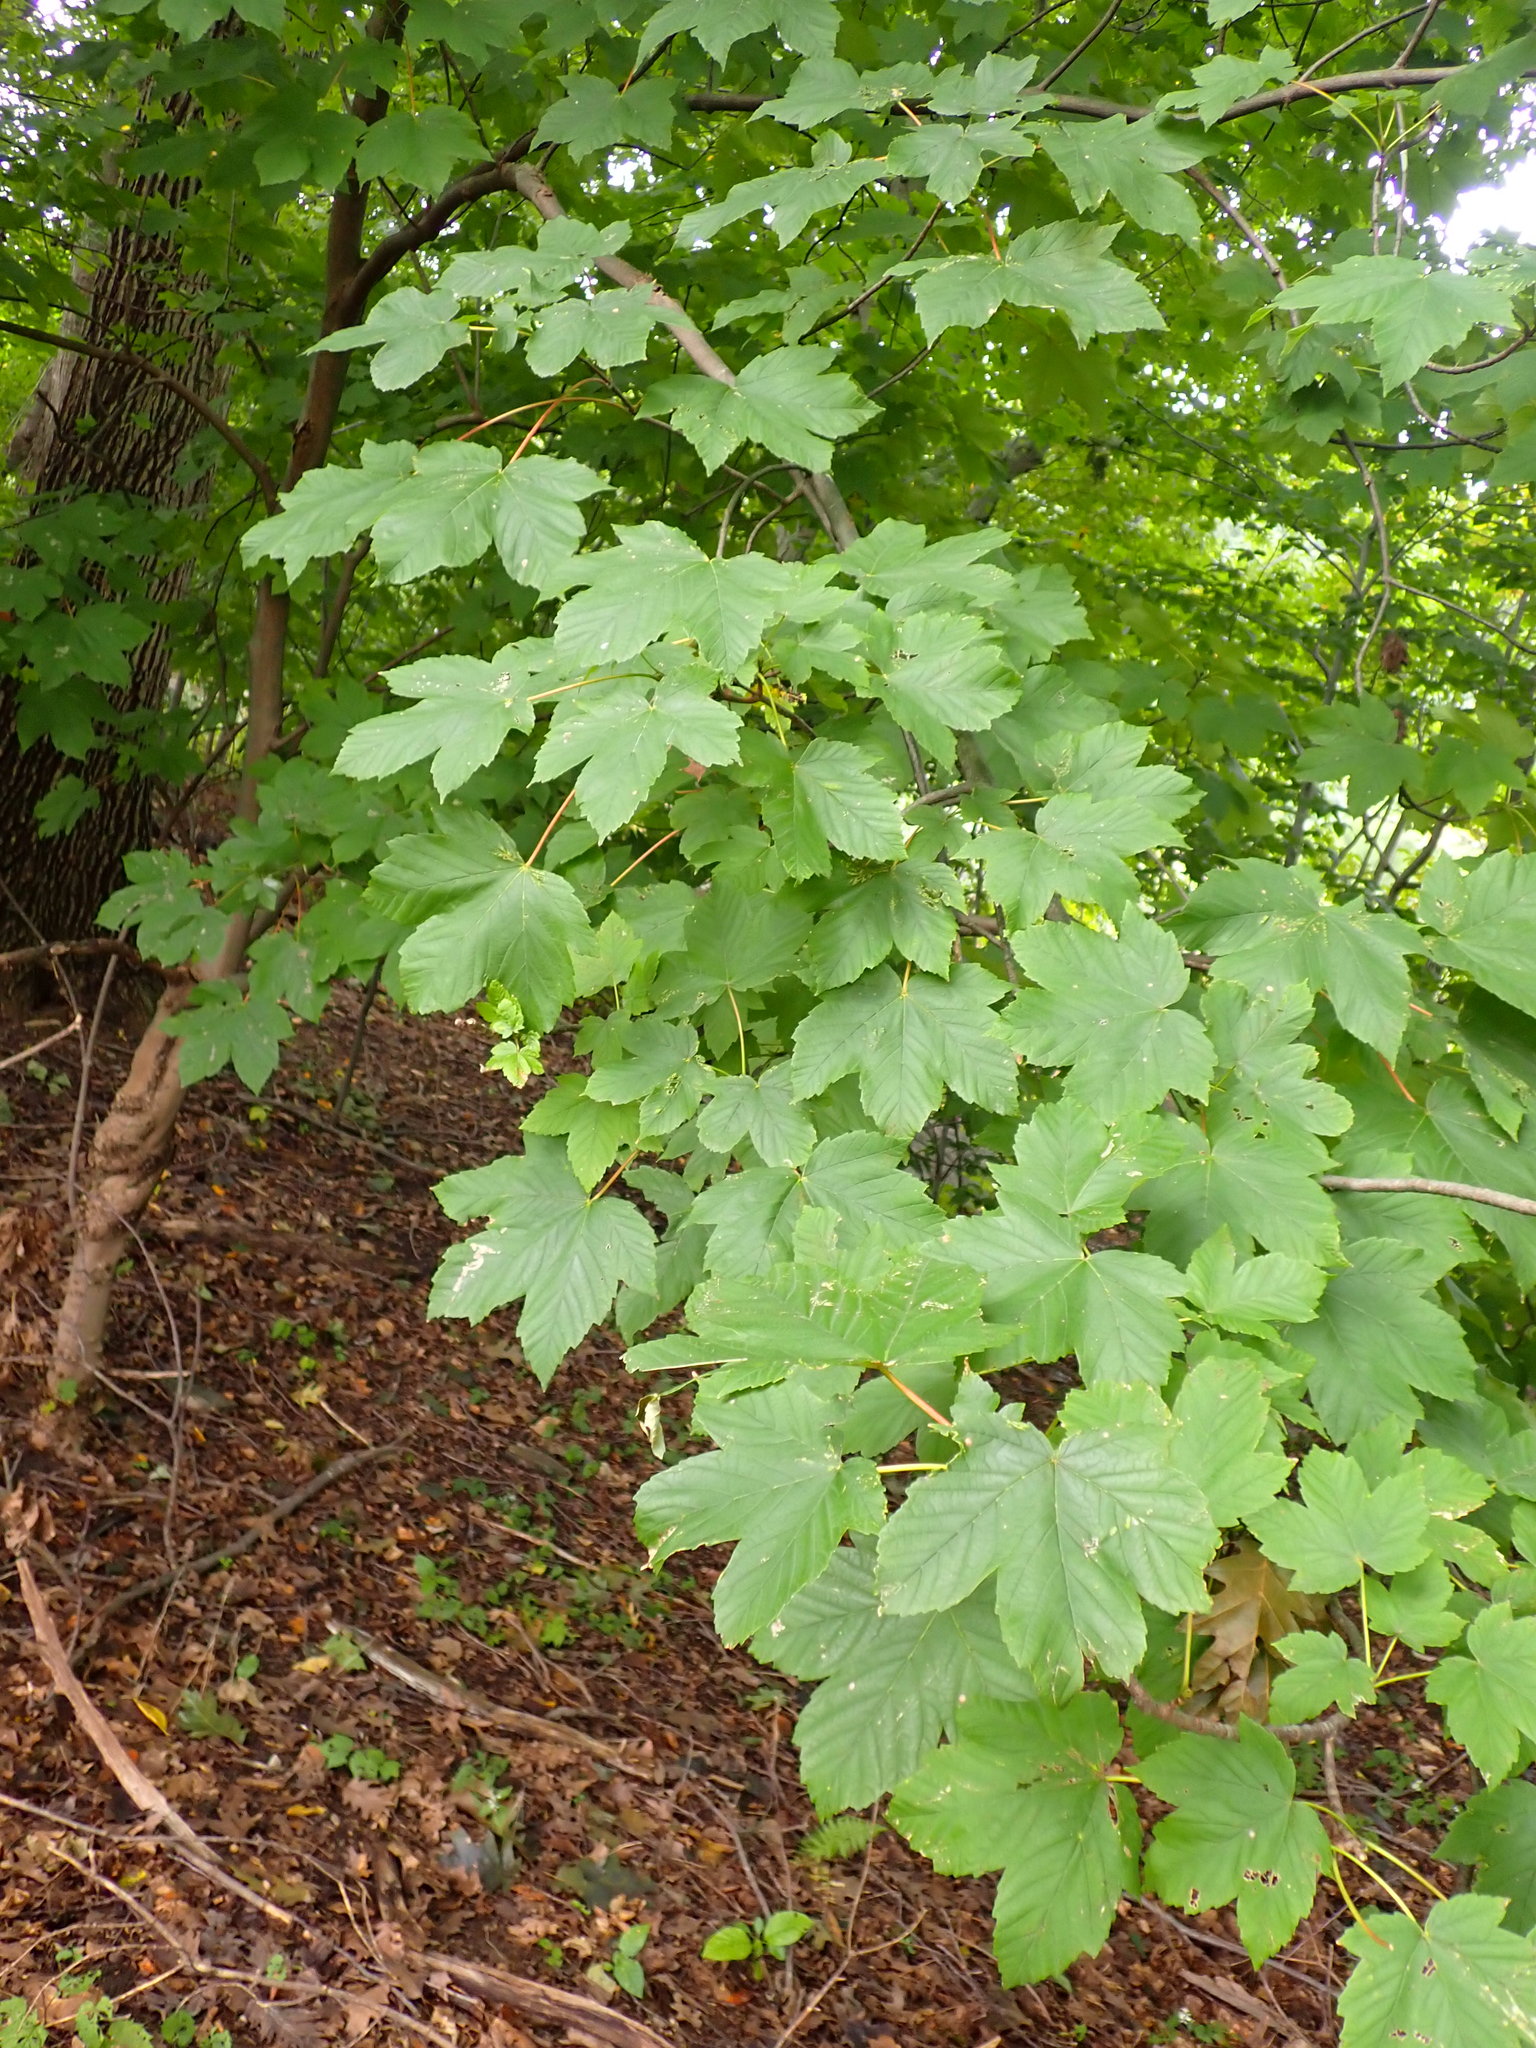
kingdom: Plantae
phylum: Tracheophyta
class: Magnoliopsida
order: Sapindales
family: Sapindaceae
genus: Acer
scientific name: Acer pseudoplatanus
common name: Sycamore
